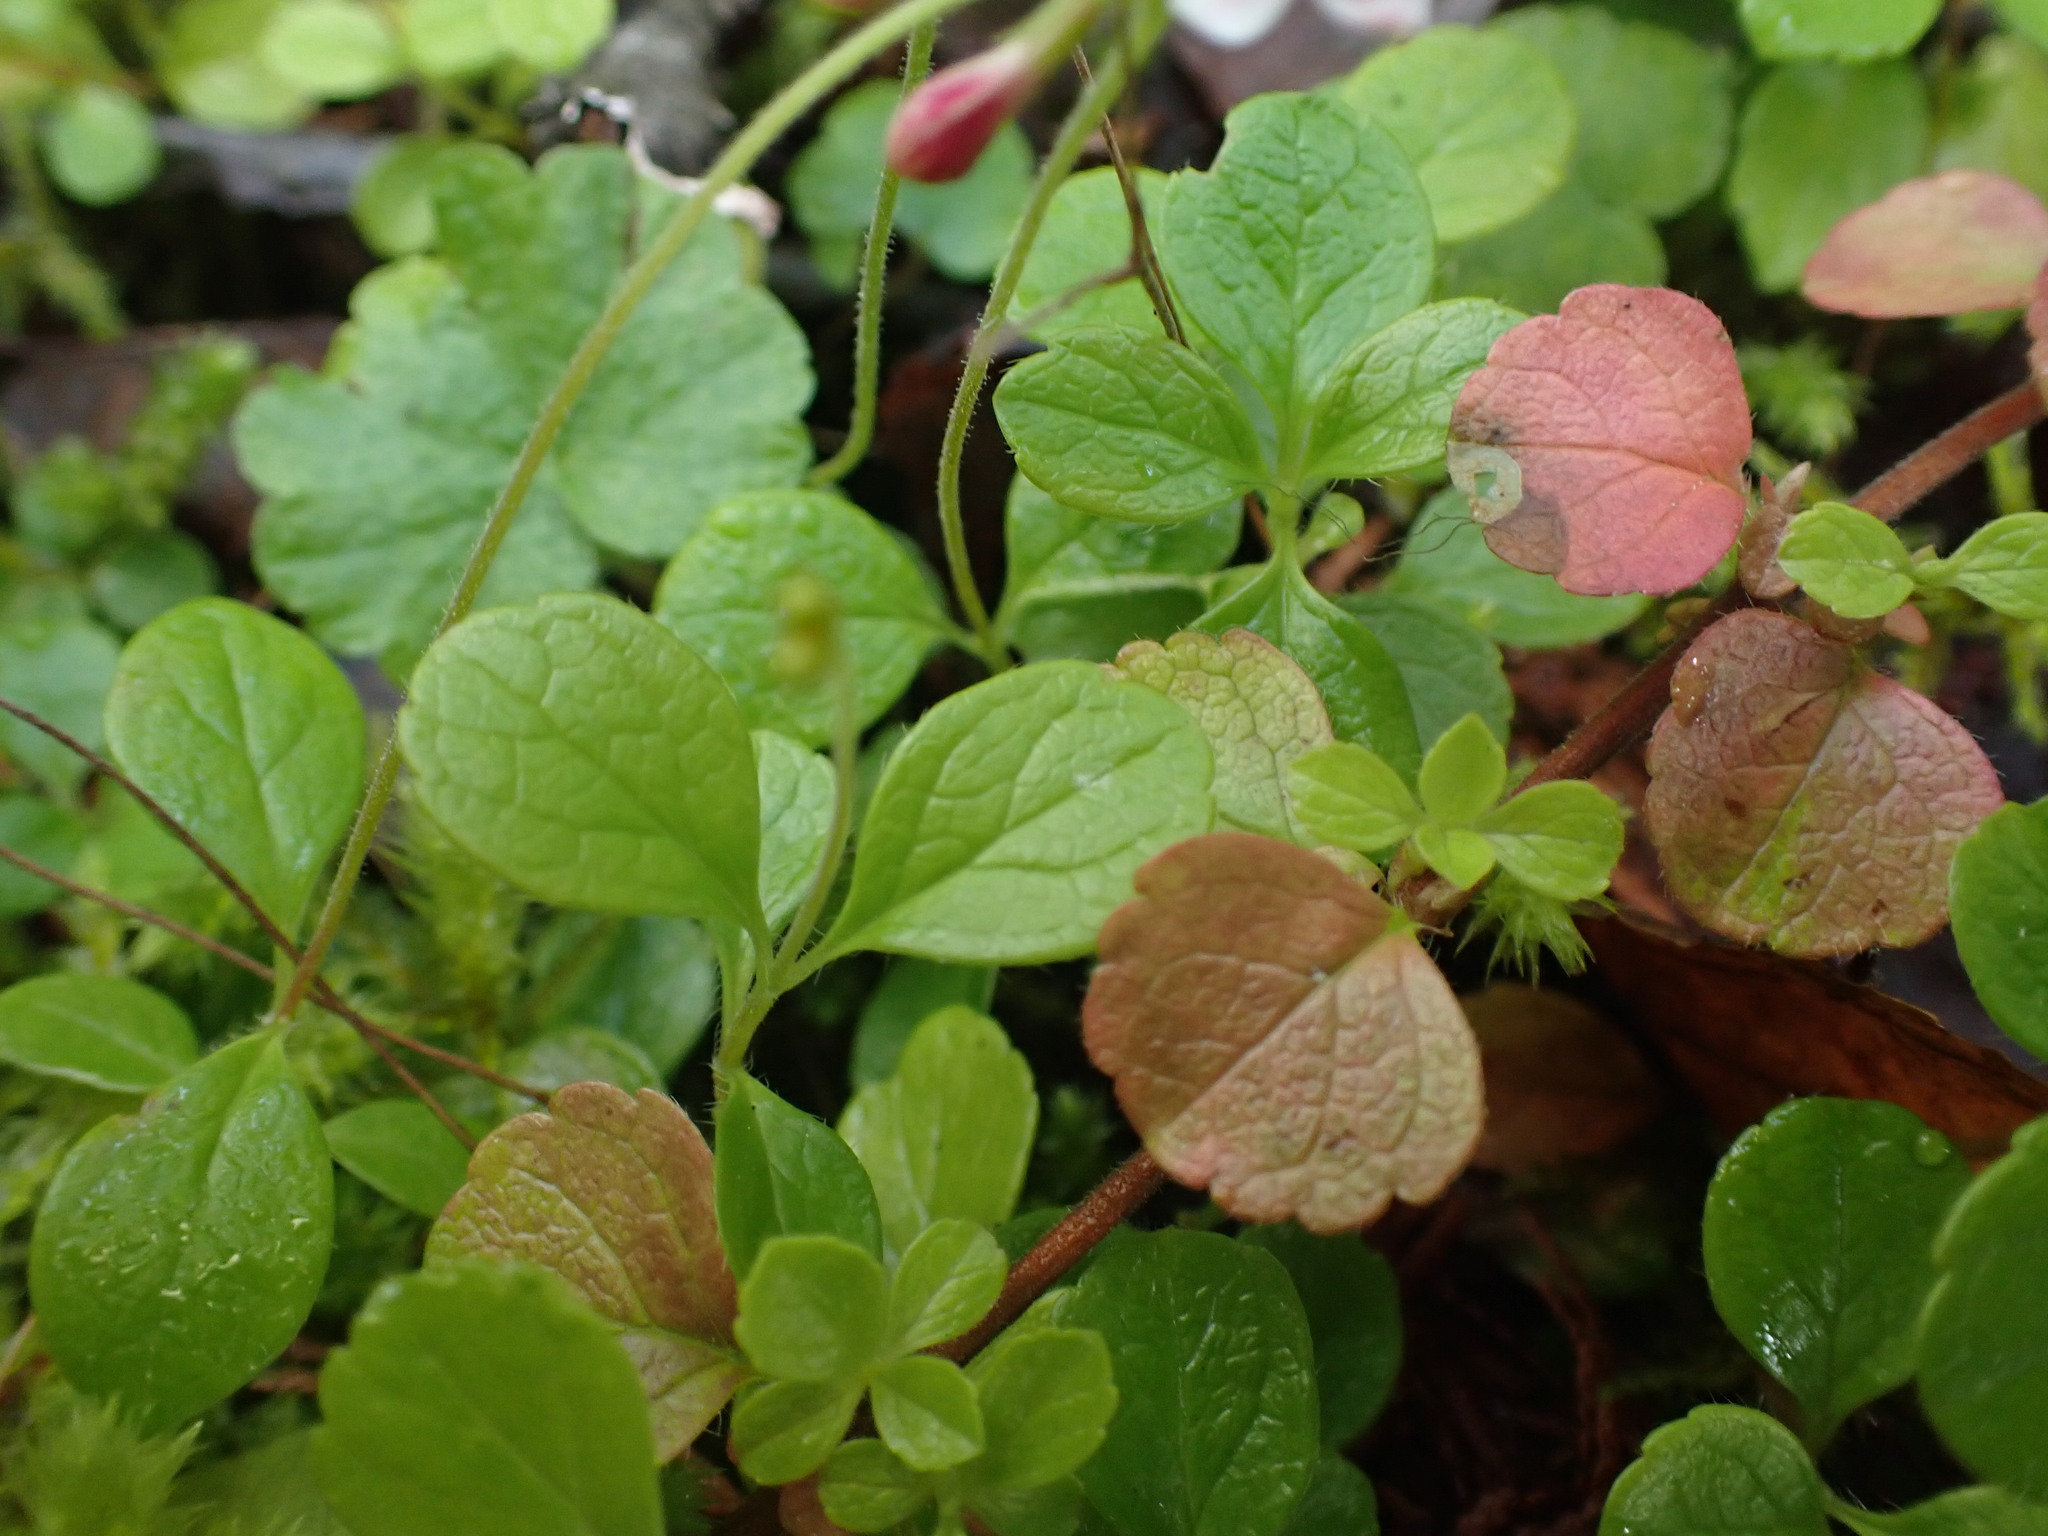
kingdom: Plantae
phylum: Tracheophyta
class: Magnoliopsida
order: Dipsacales
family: Caprifoliaceae
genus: Linnaea
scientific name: Linnaea borealis
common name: Twinflower
